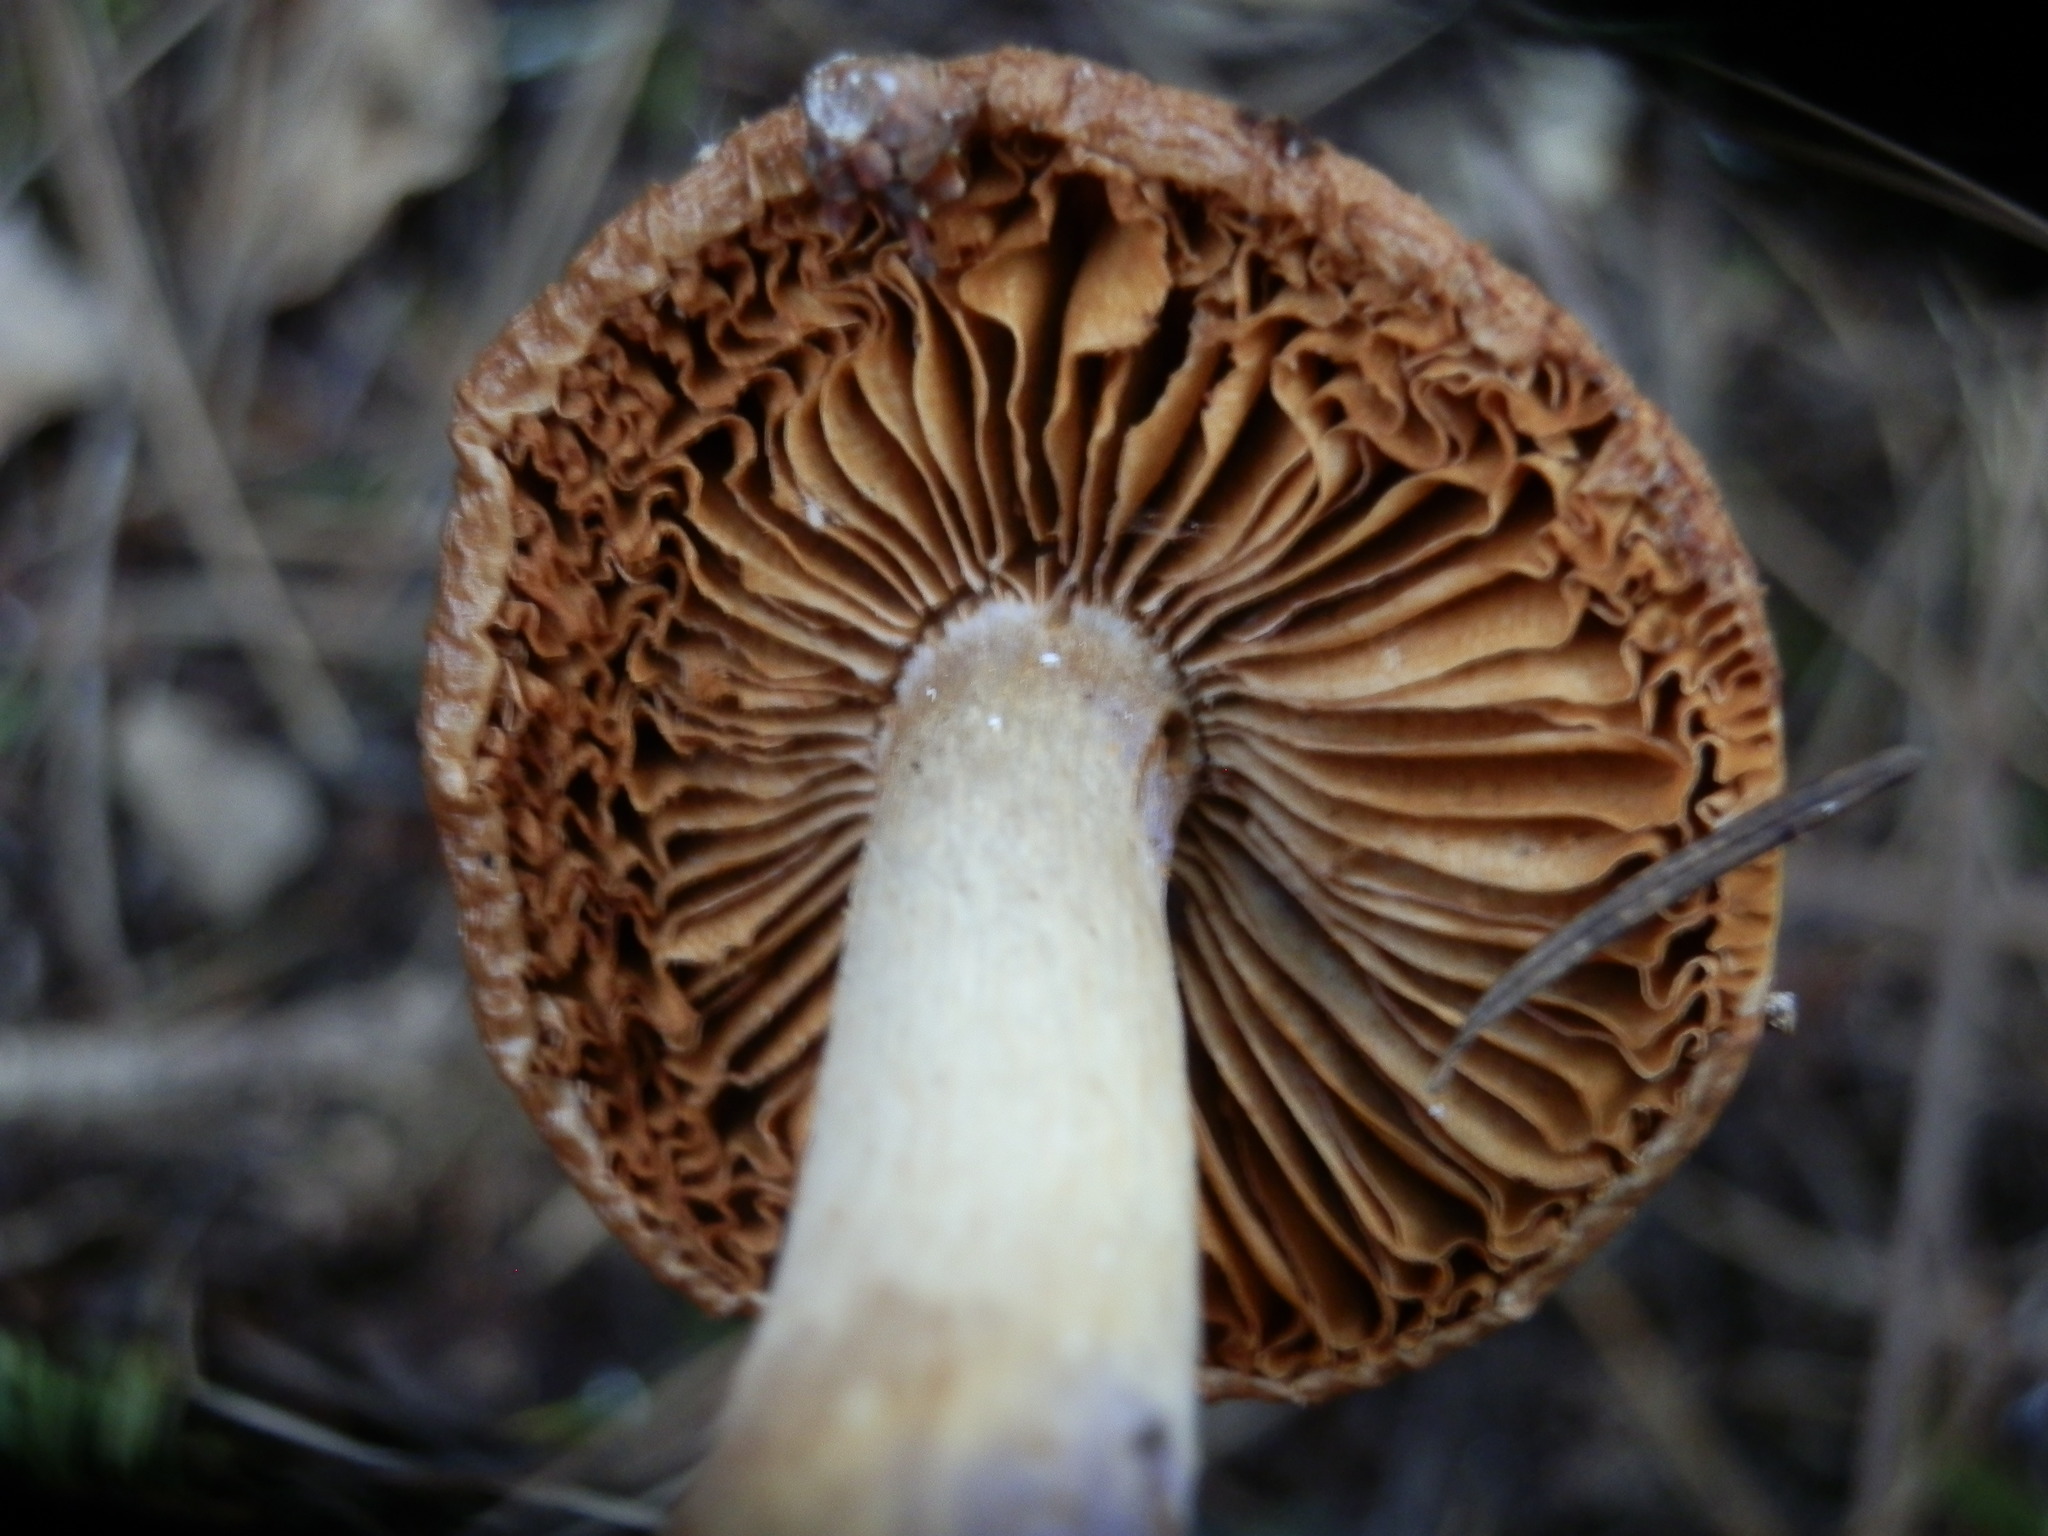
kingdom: Fungi
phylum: Basidiomycota
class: Agaricomycetes
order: Agaricales
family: Cortinariaceae
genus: Cortinarius
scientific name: Cortinarius vanduzerensis
